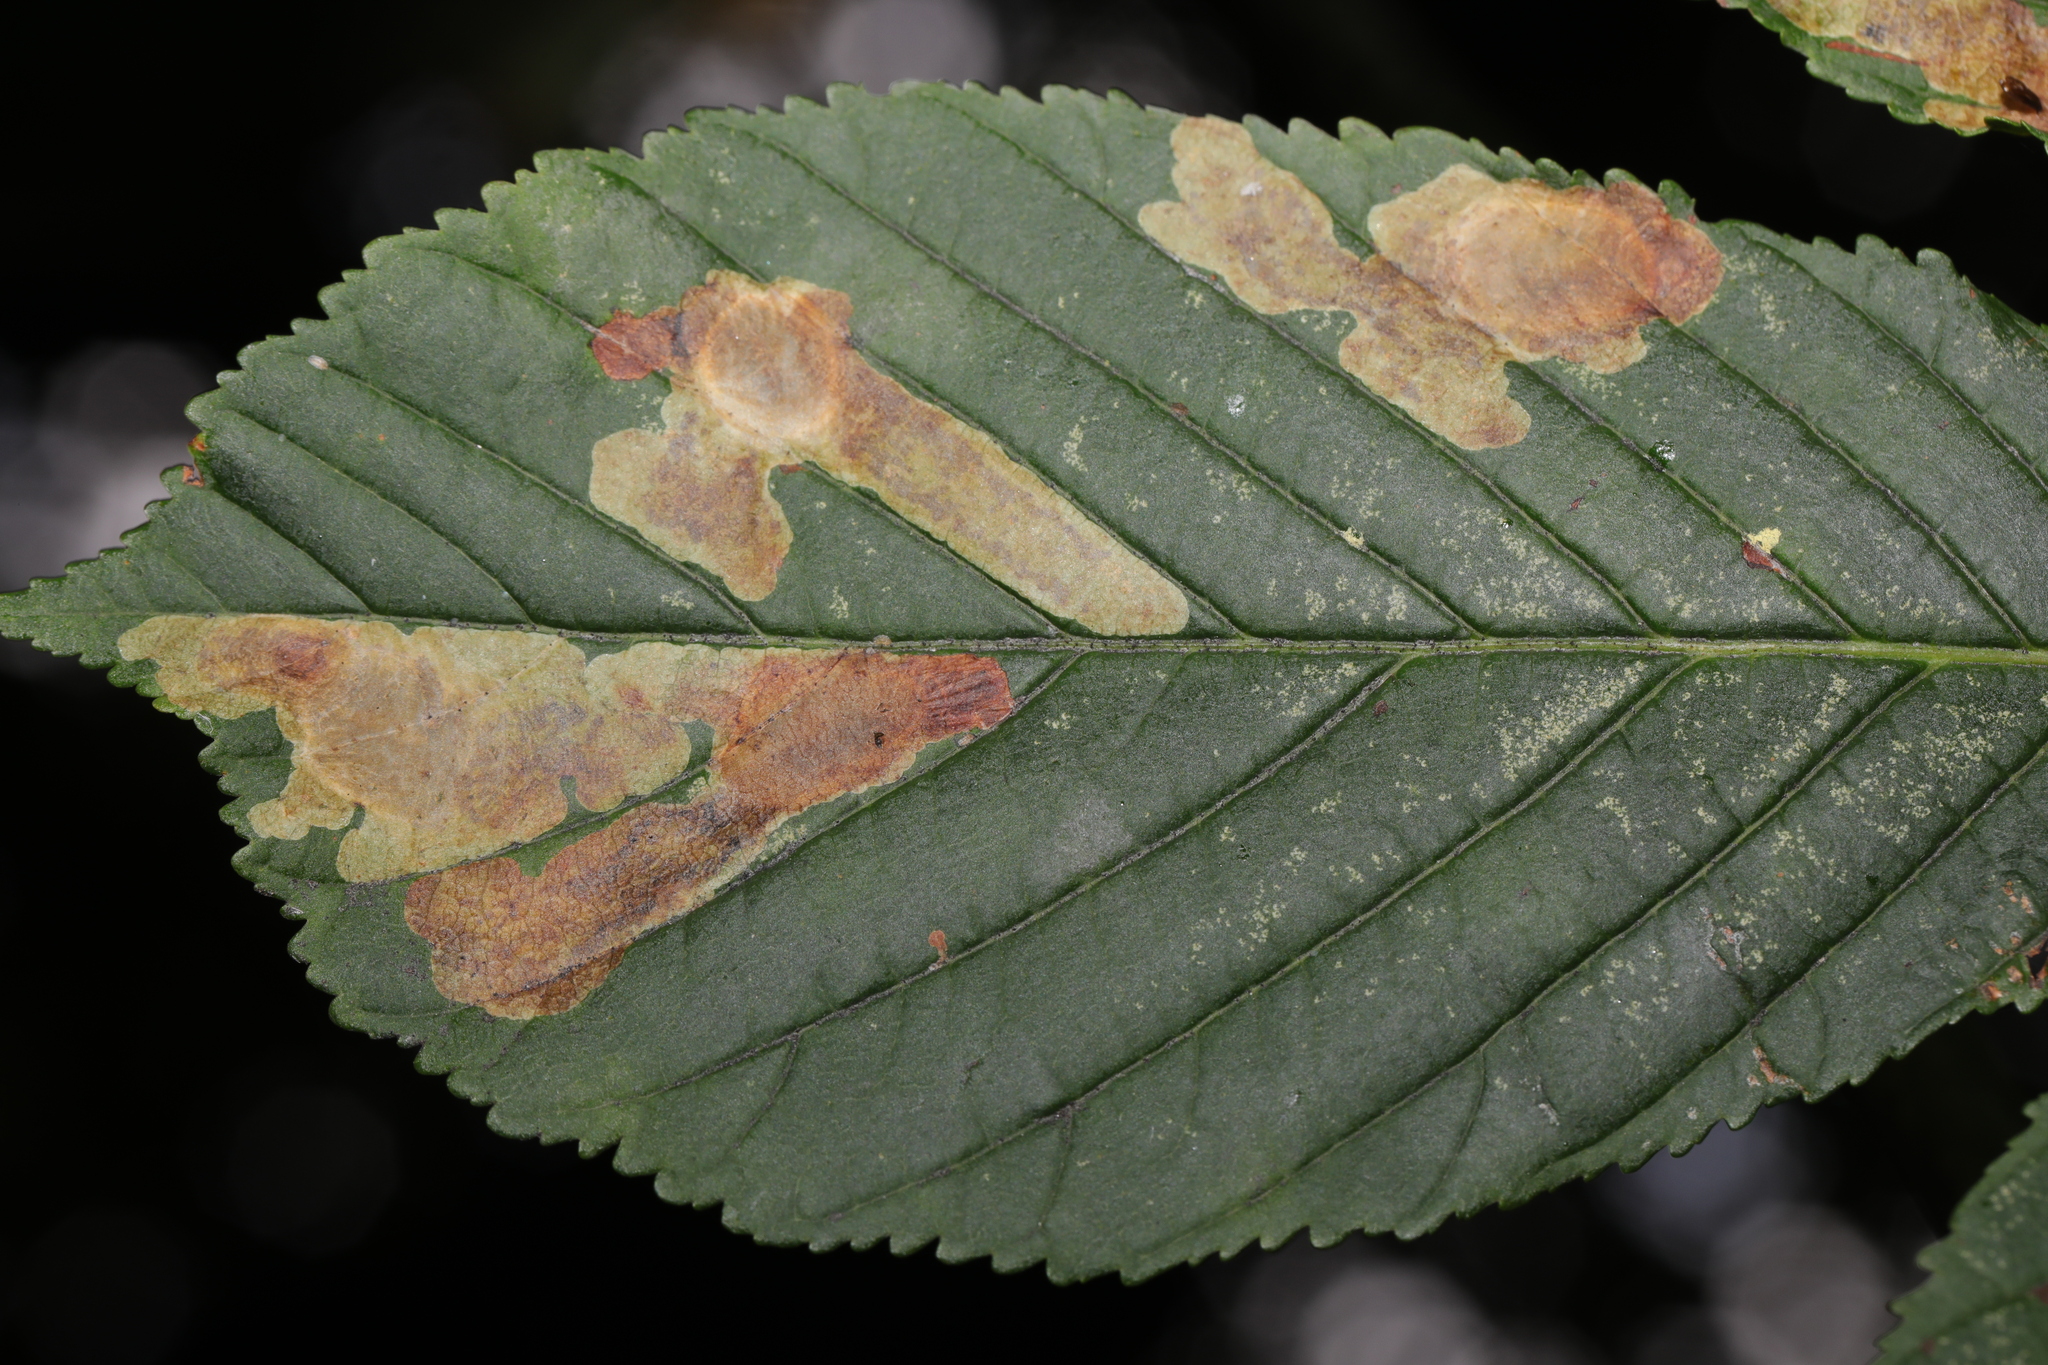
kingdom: Animalia
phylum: Arthropoda
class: Insecta
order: Lepidoptera
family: Gracillariidae
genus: Cameraria
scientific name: Cameraria ohridella
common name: Horse-chestnut leaf-miner
